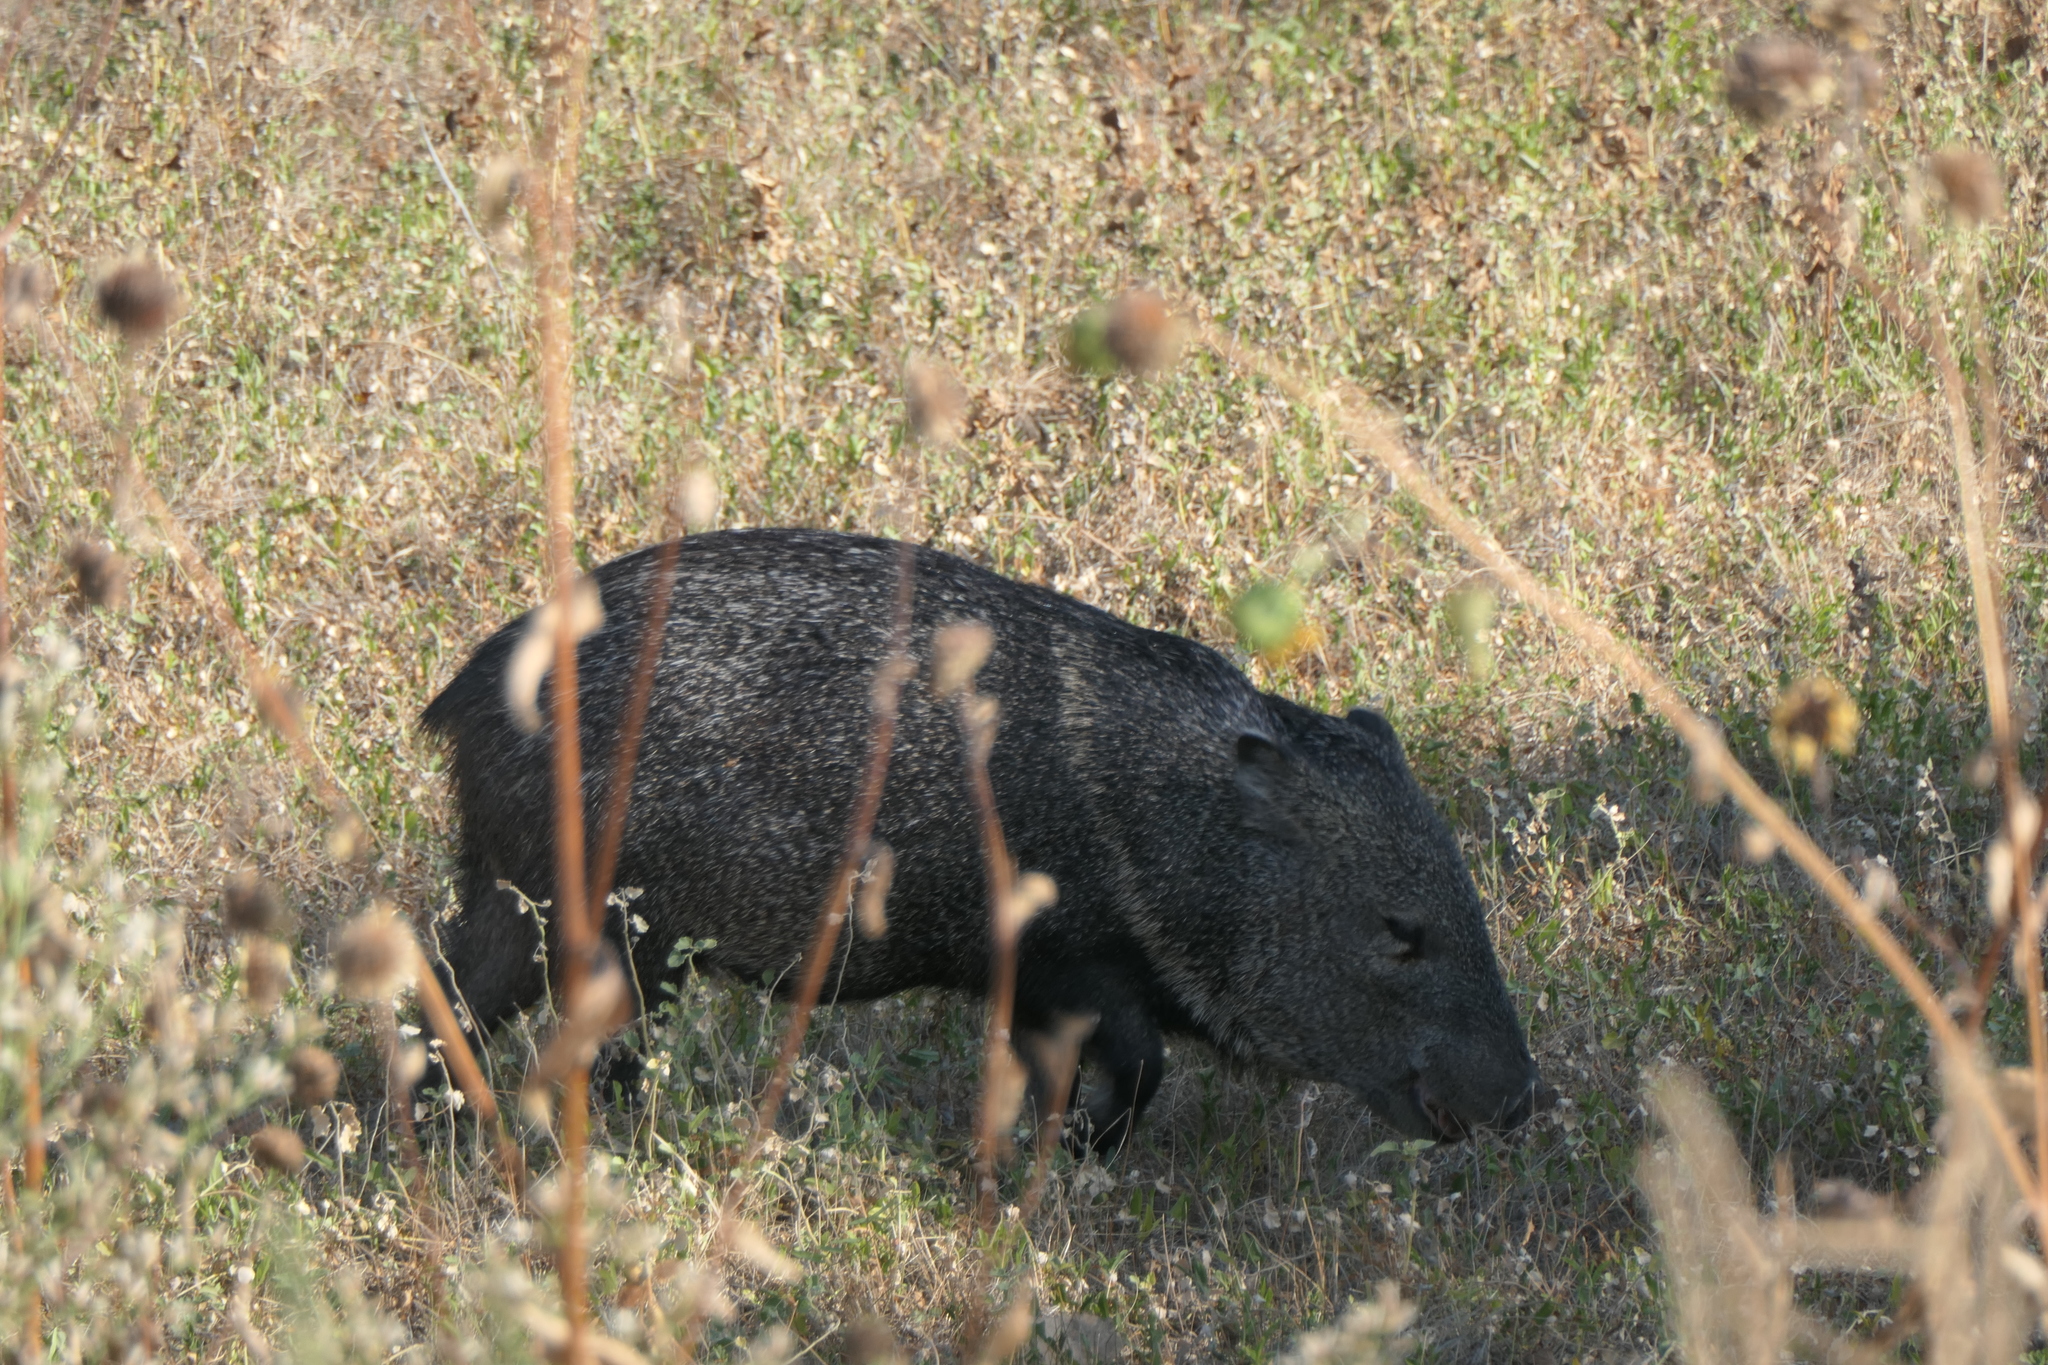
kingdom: Animalia
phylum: Chordata
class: Mammalia
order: Artiodactyla
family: Tayassuidae
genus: Pecari
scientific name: Pecari tajacu
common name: Collared peccary
